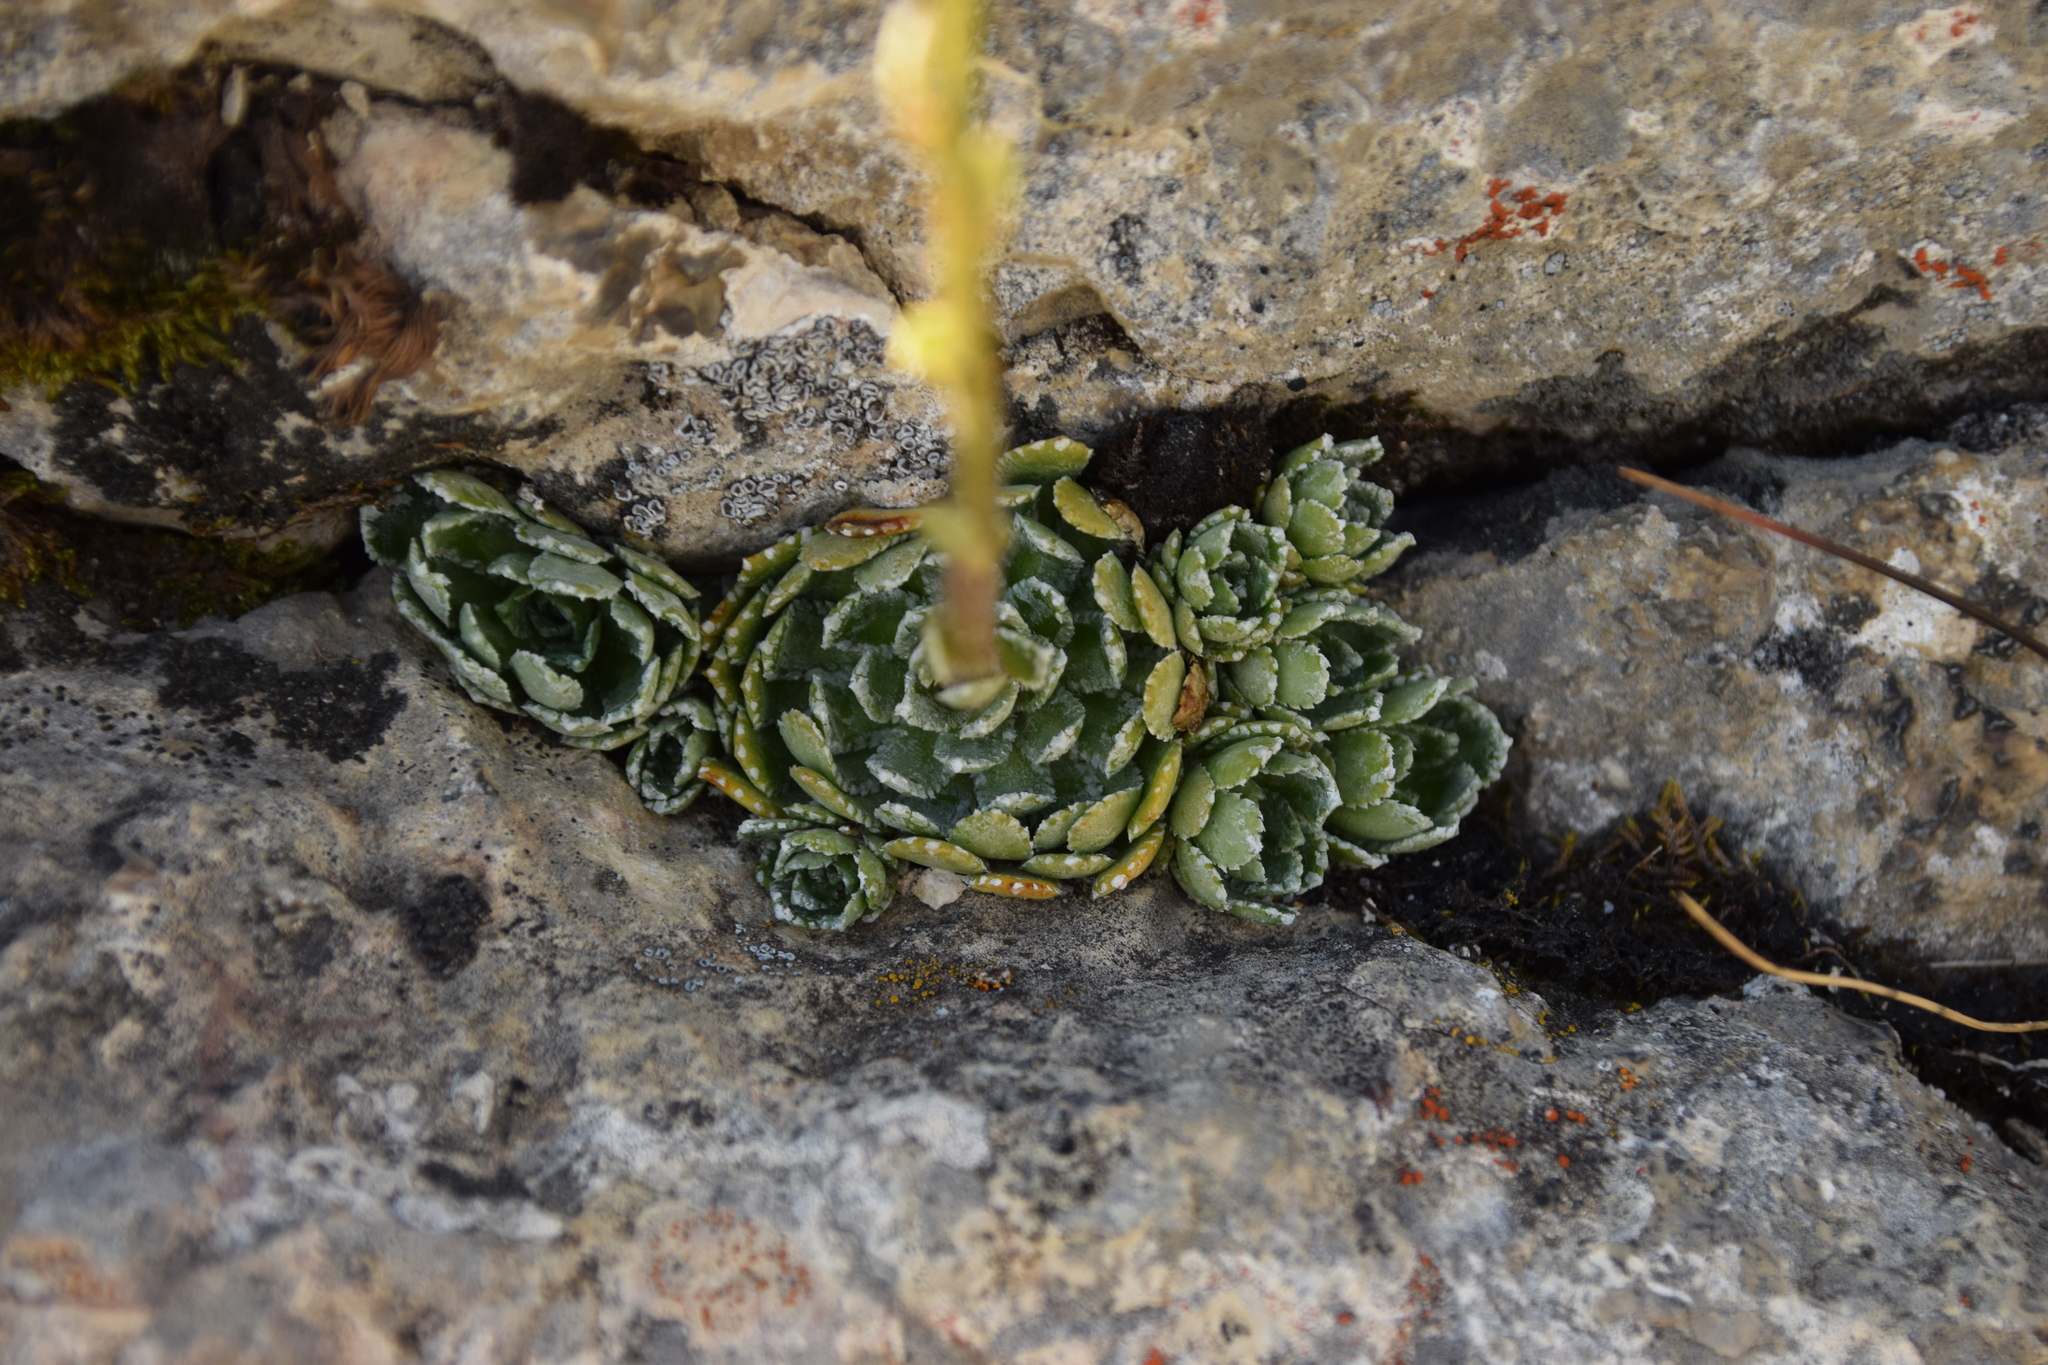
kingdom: Plantae
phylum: Tracheophyta
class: Magnoliopsida
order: Saxifragales
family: Saxifragaceae
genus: Saxifraga
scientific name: Saxifraga paniculata
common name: Livelong saxifrage
